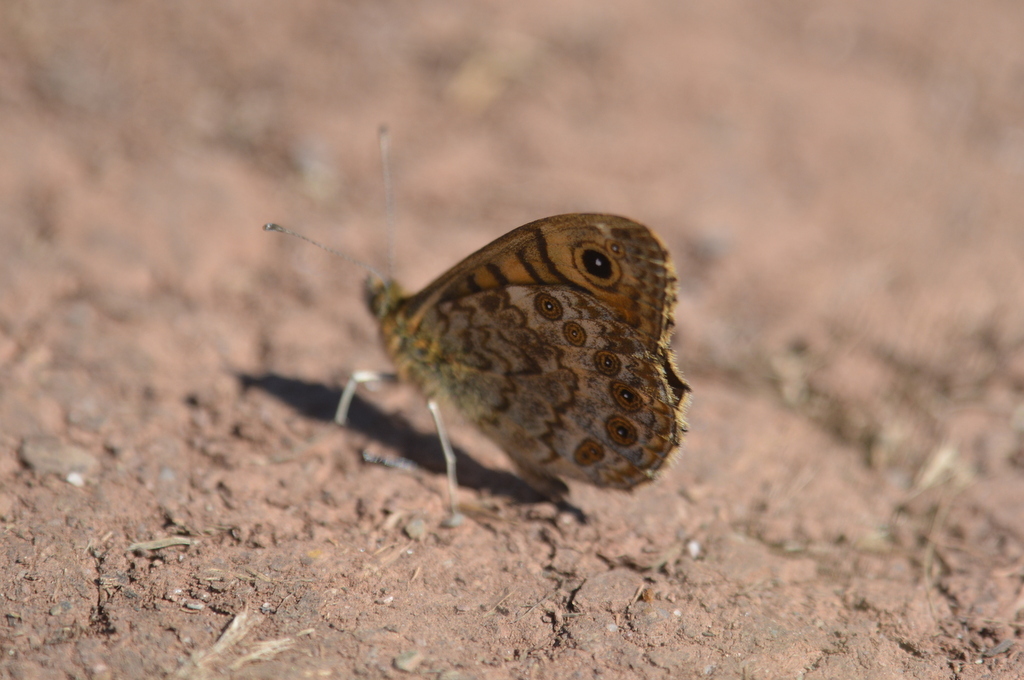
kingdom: Animalia
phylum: Arthropoda
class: Insecta
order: Lepidoptera
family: Nymphalidae
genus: Pararge
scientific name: Pararge Lasiommata megera
